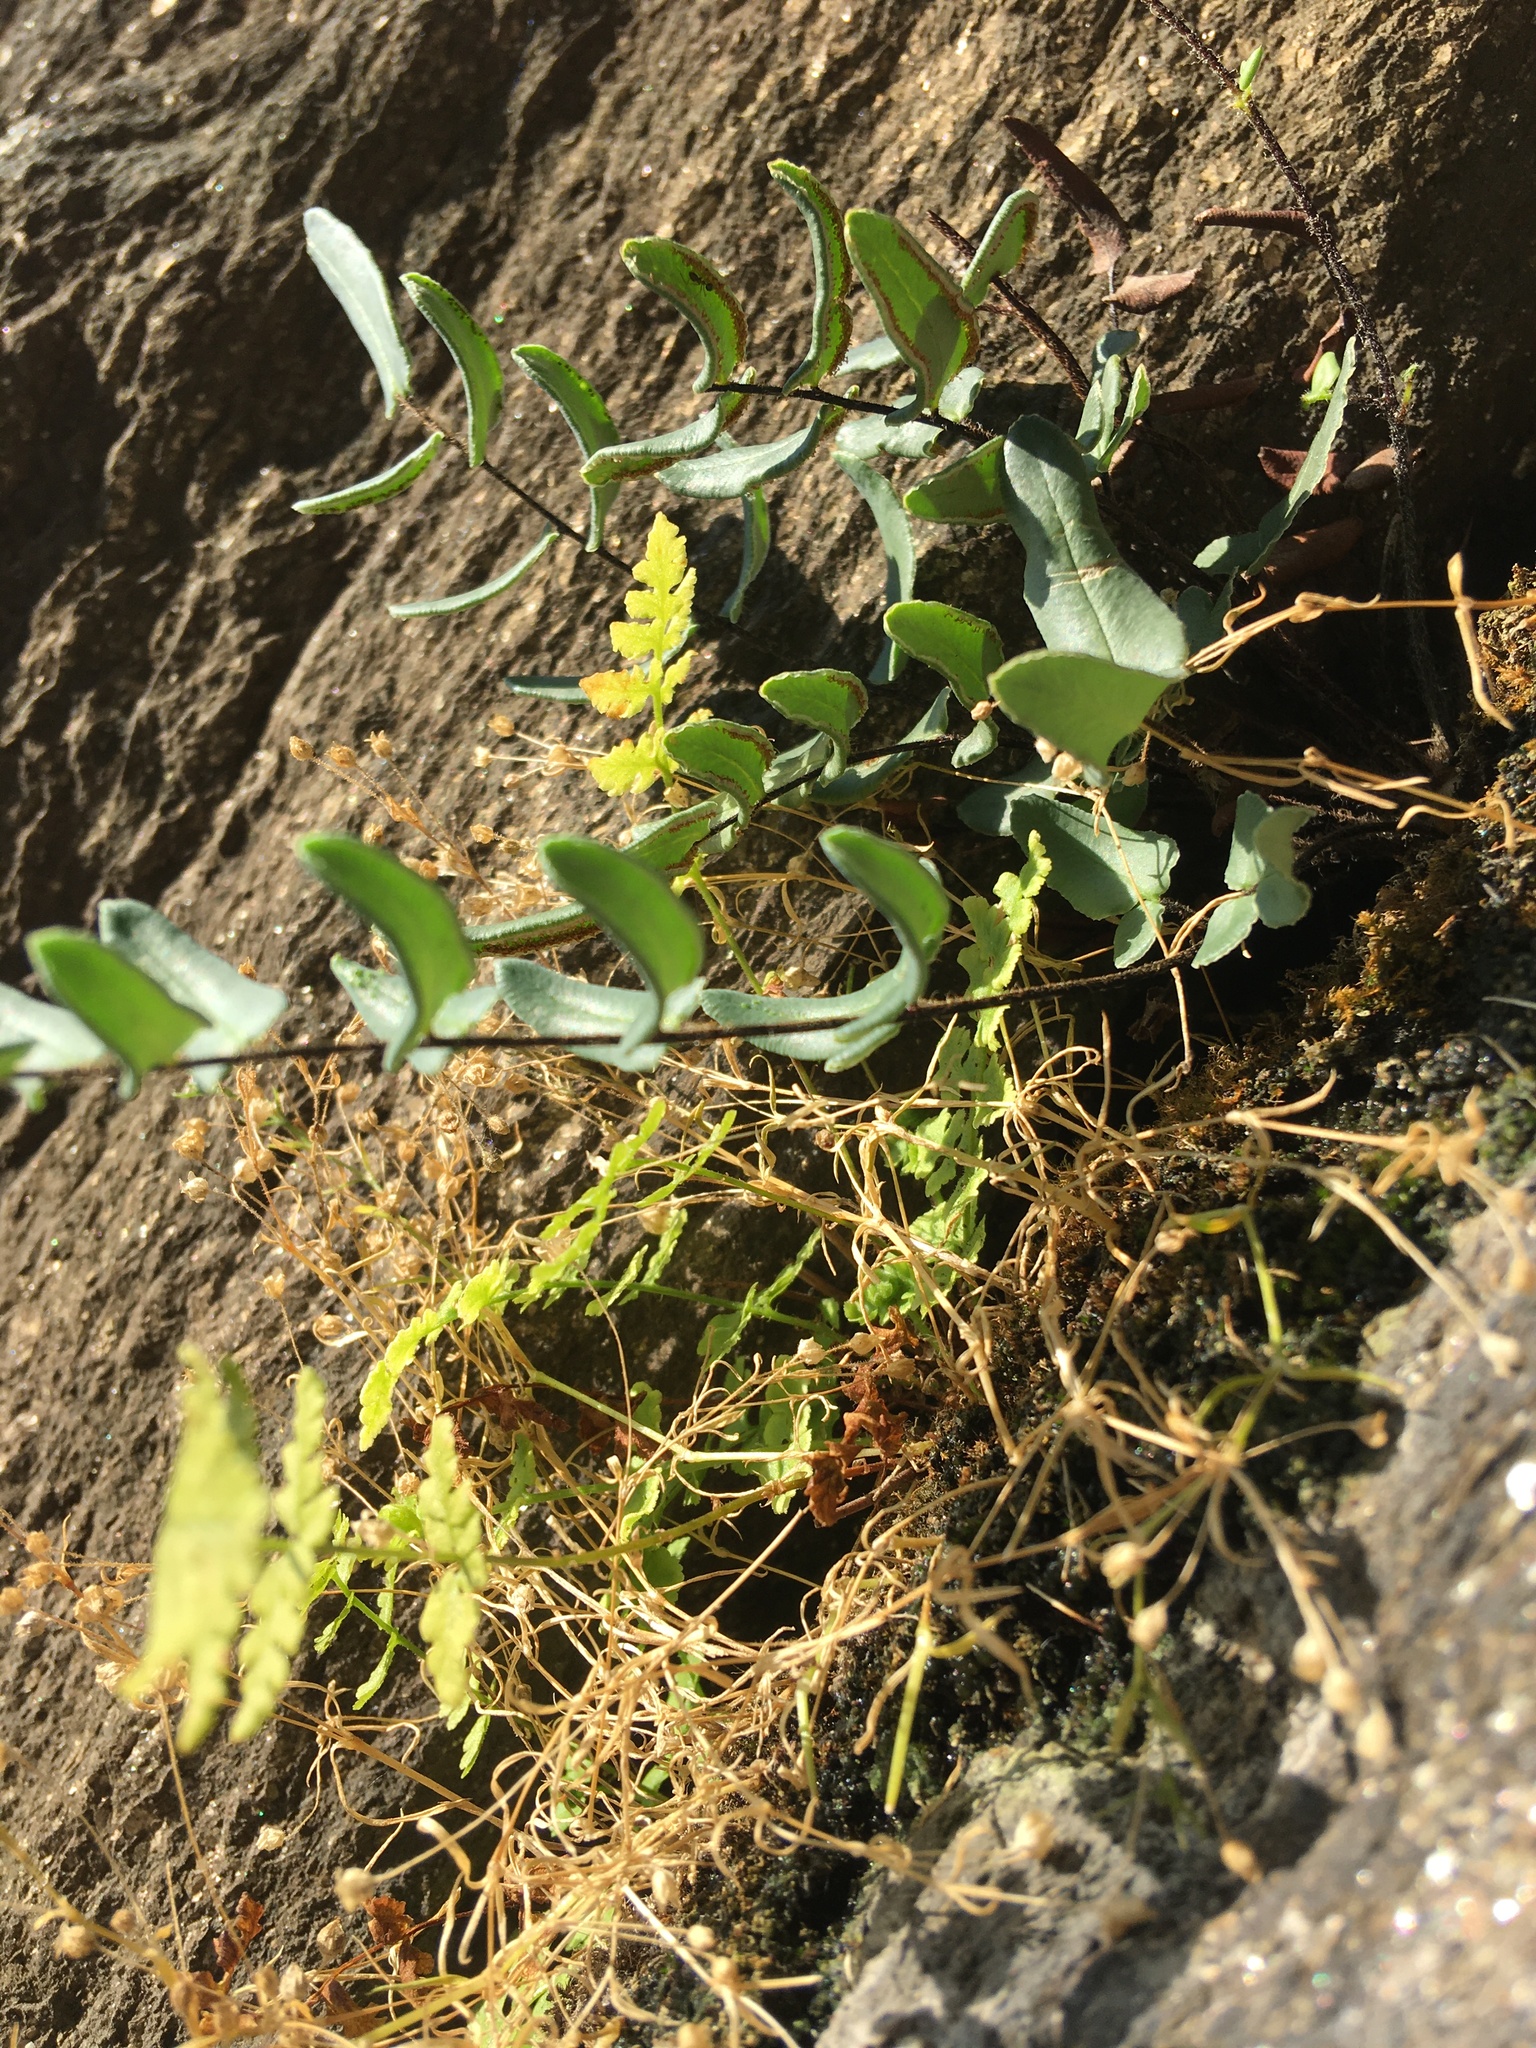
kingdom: Plantae
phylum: Tracheophyta
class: Polypodiopsida
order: Polypodiales
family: Pteridaceae
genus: Pellaea
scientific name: Pellaea atropurpurea
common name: Hairy cliffbrake
